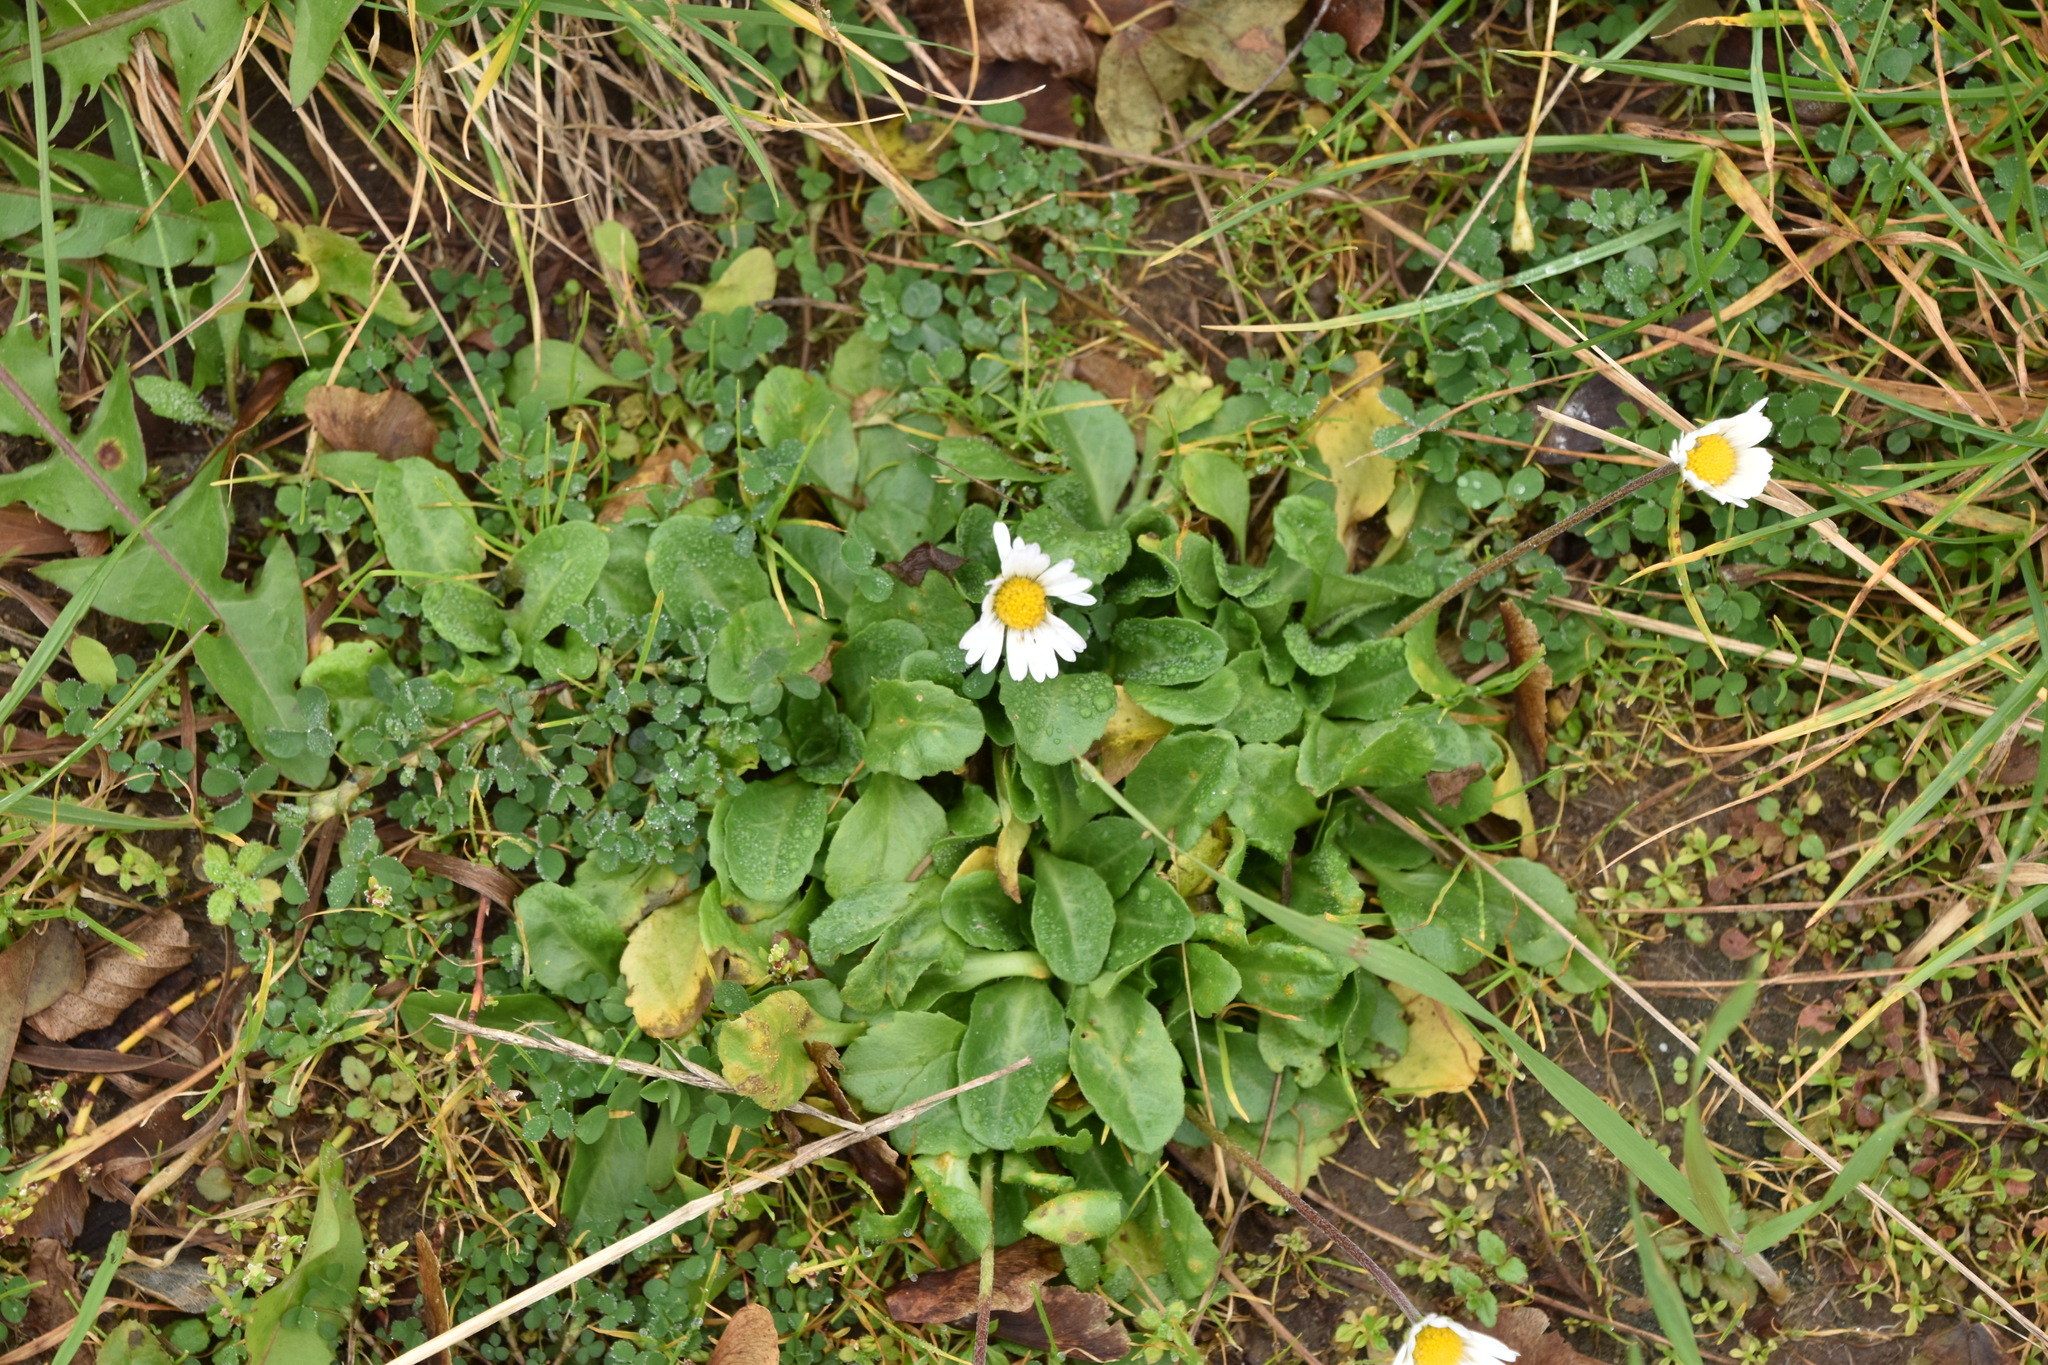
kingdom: Plantae
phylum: Tracheophyta
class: Magnoliopsida
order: Asterales
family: Asteraceae
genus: Bellis
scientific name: Bellis perennis
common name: Lawndaisy
